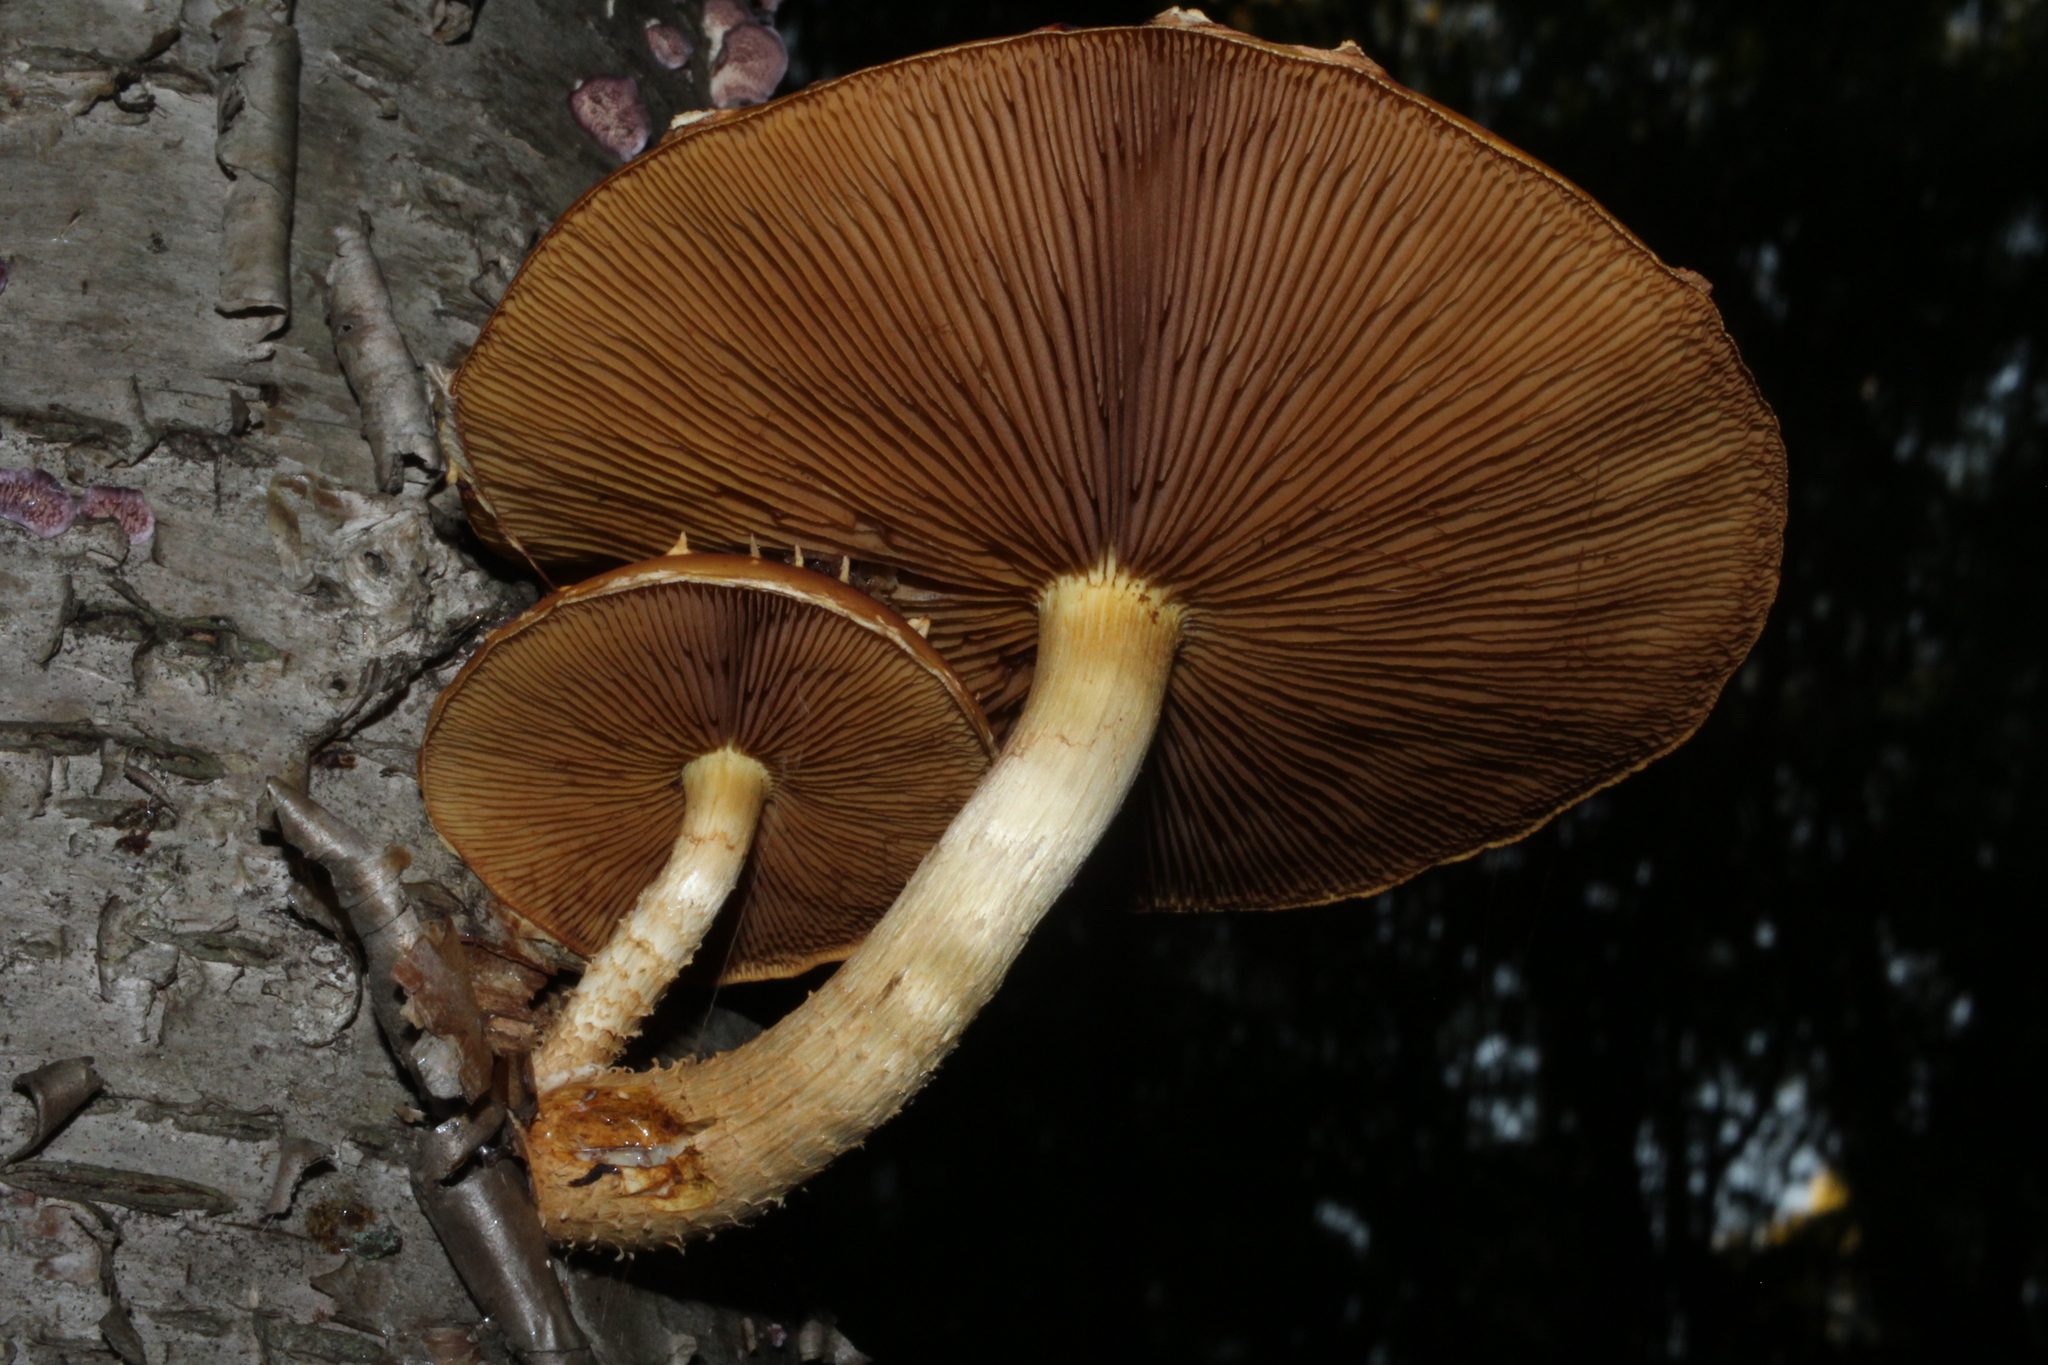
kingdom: Fungi
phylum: Basidiomycota
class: Agaricomycetes
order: Agaricales
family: Strophariaceae
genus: Pholiota
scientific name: Pholiota limonella
